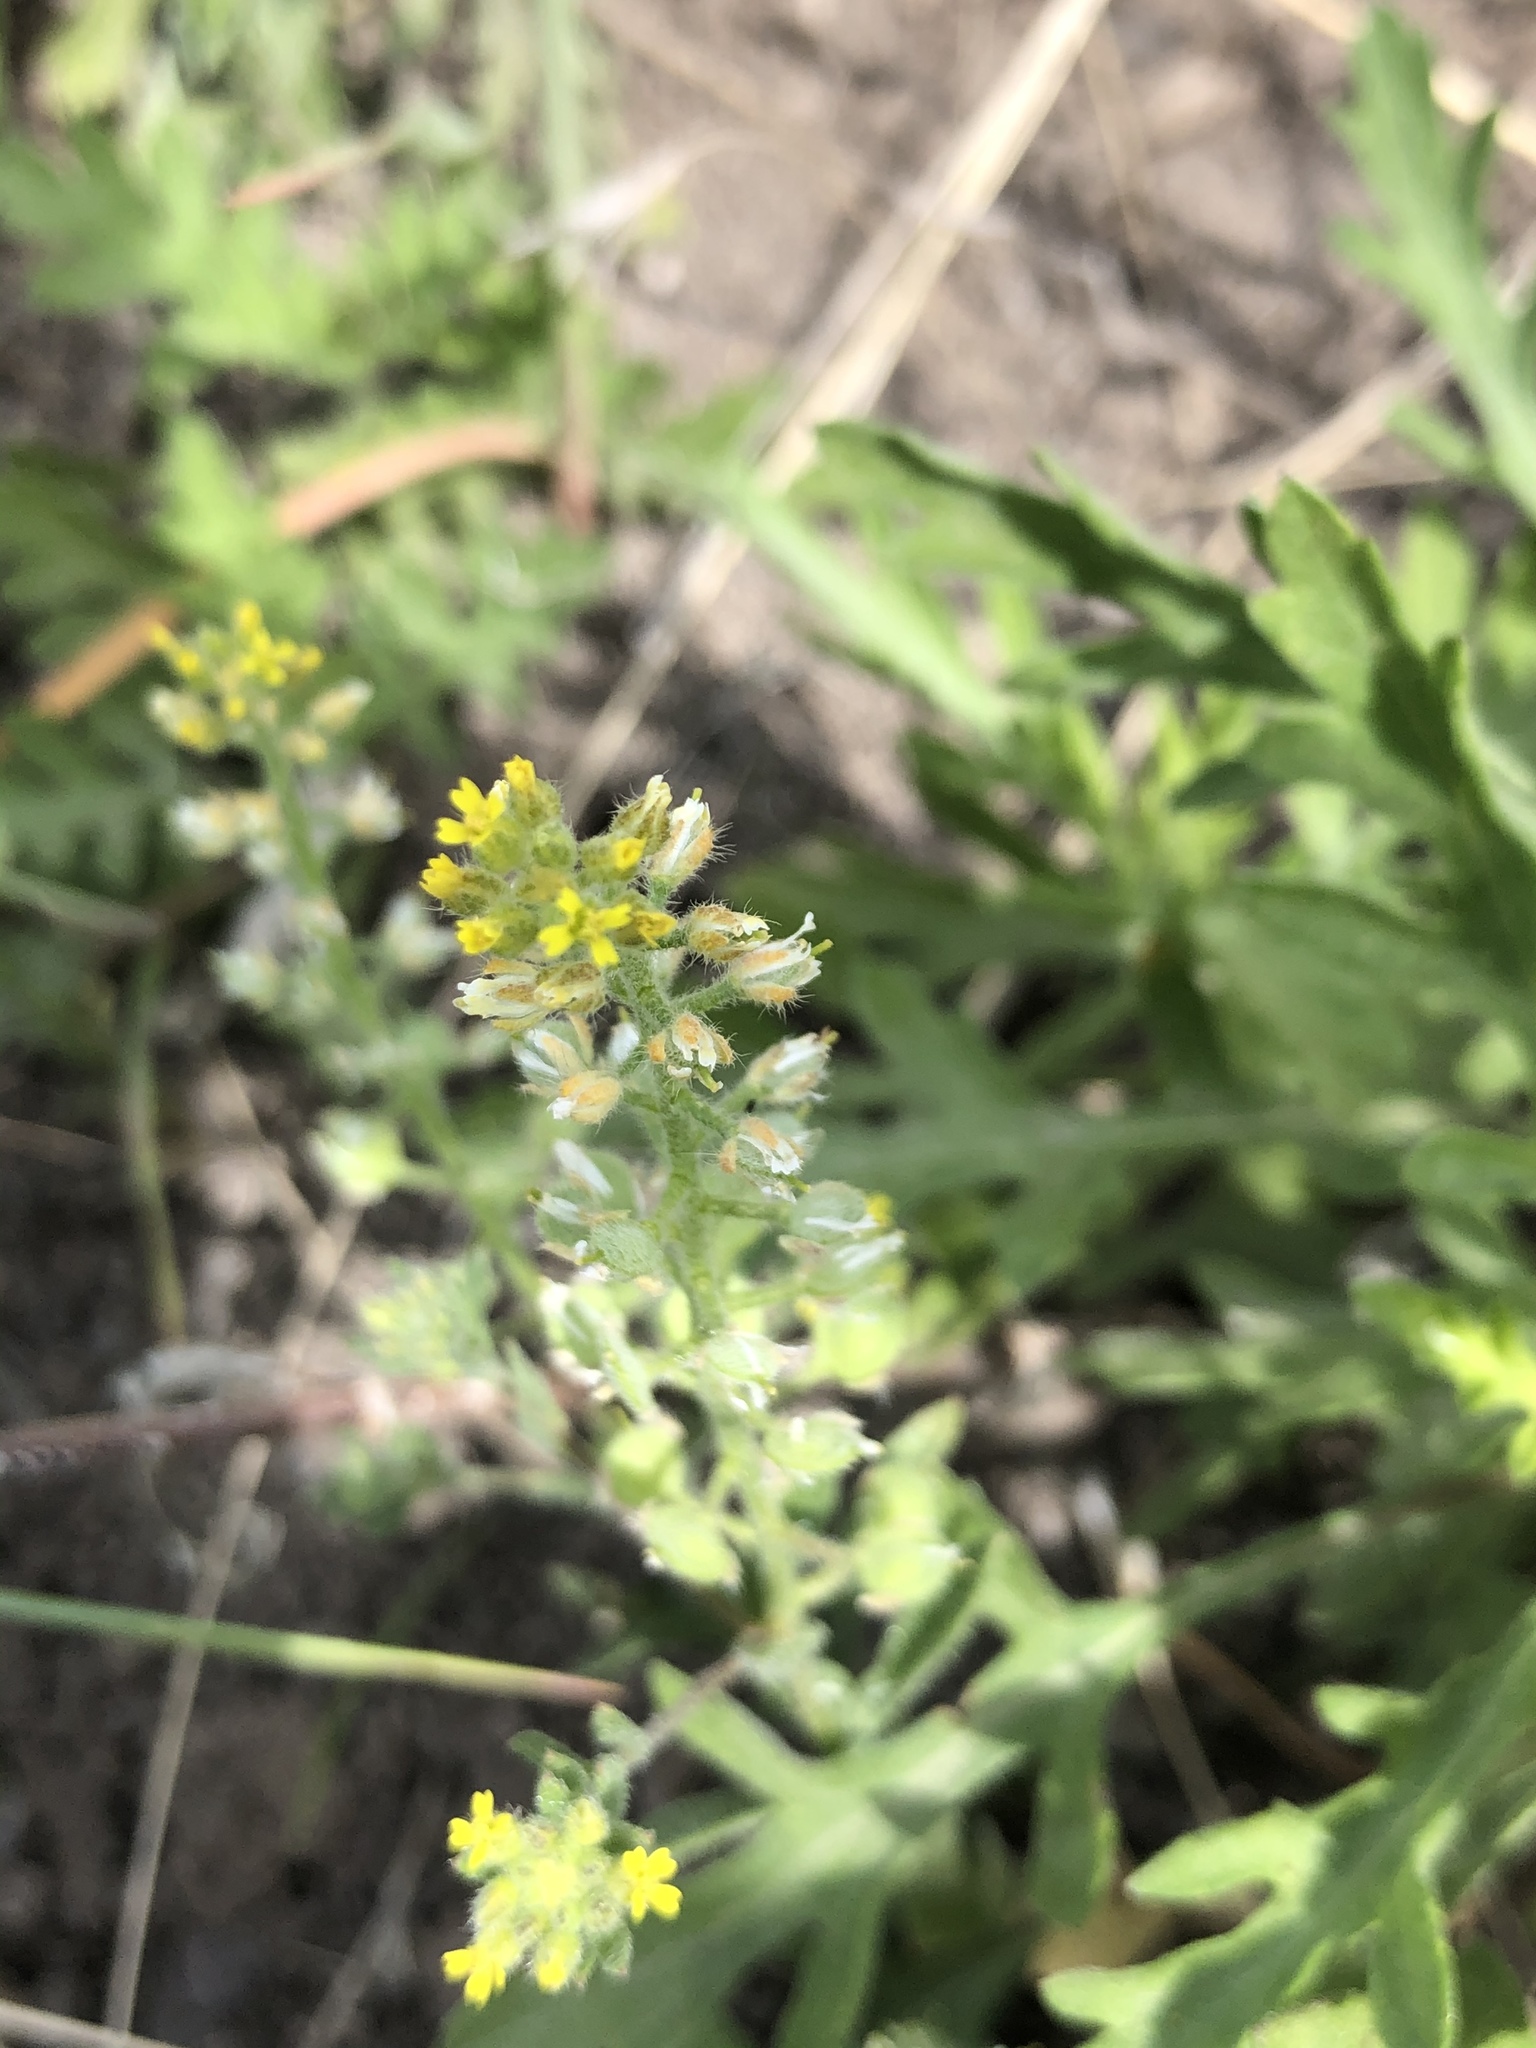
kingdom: Plantae
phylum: Tracheophyta
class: Magnoliopsida
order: Brassicales
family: Brassicaceae
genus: Alyssum
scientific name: Alyssum simplex
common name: Alyssum
